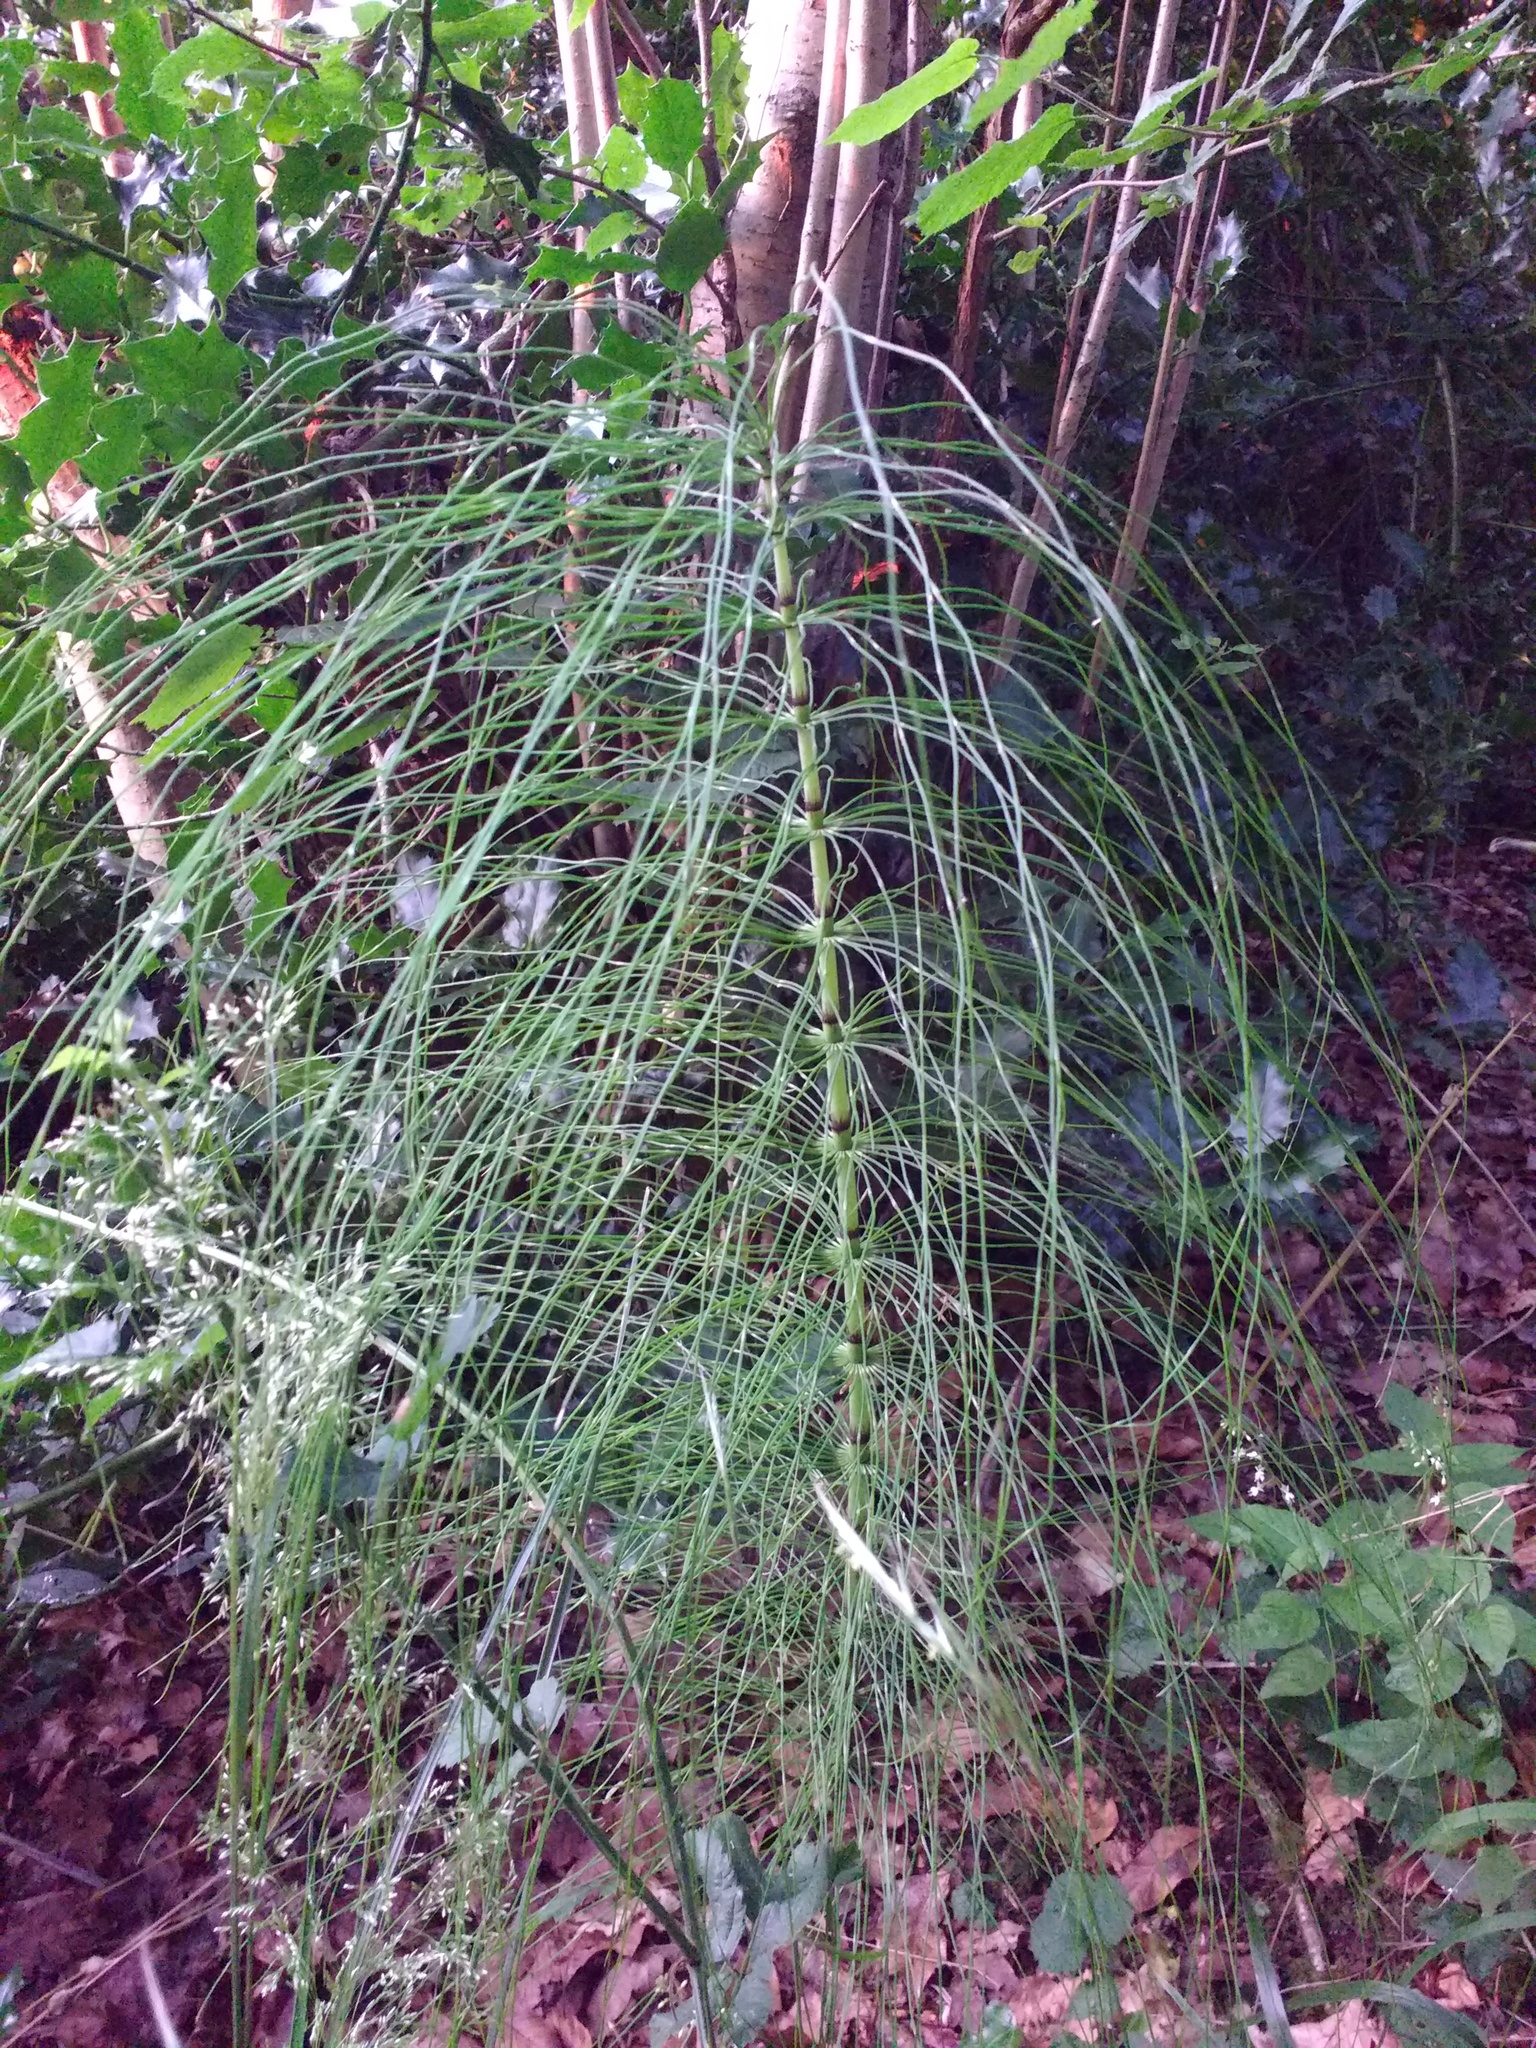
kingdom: Plantae
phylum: Tracheophyta
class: Polypodiopsida
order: Equisetales
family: Equisetaceae
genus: Equisetum
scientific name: Equisetum telmateia
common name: Great horsetail
